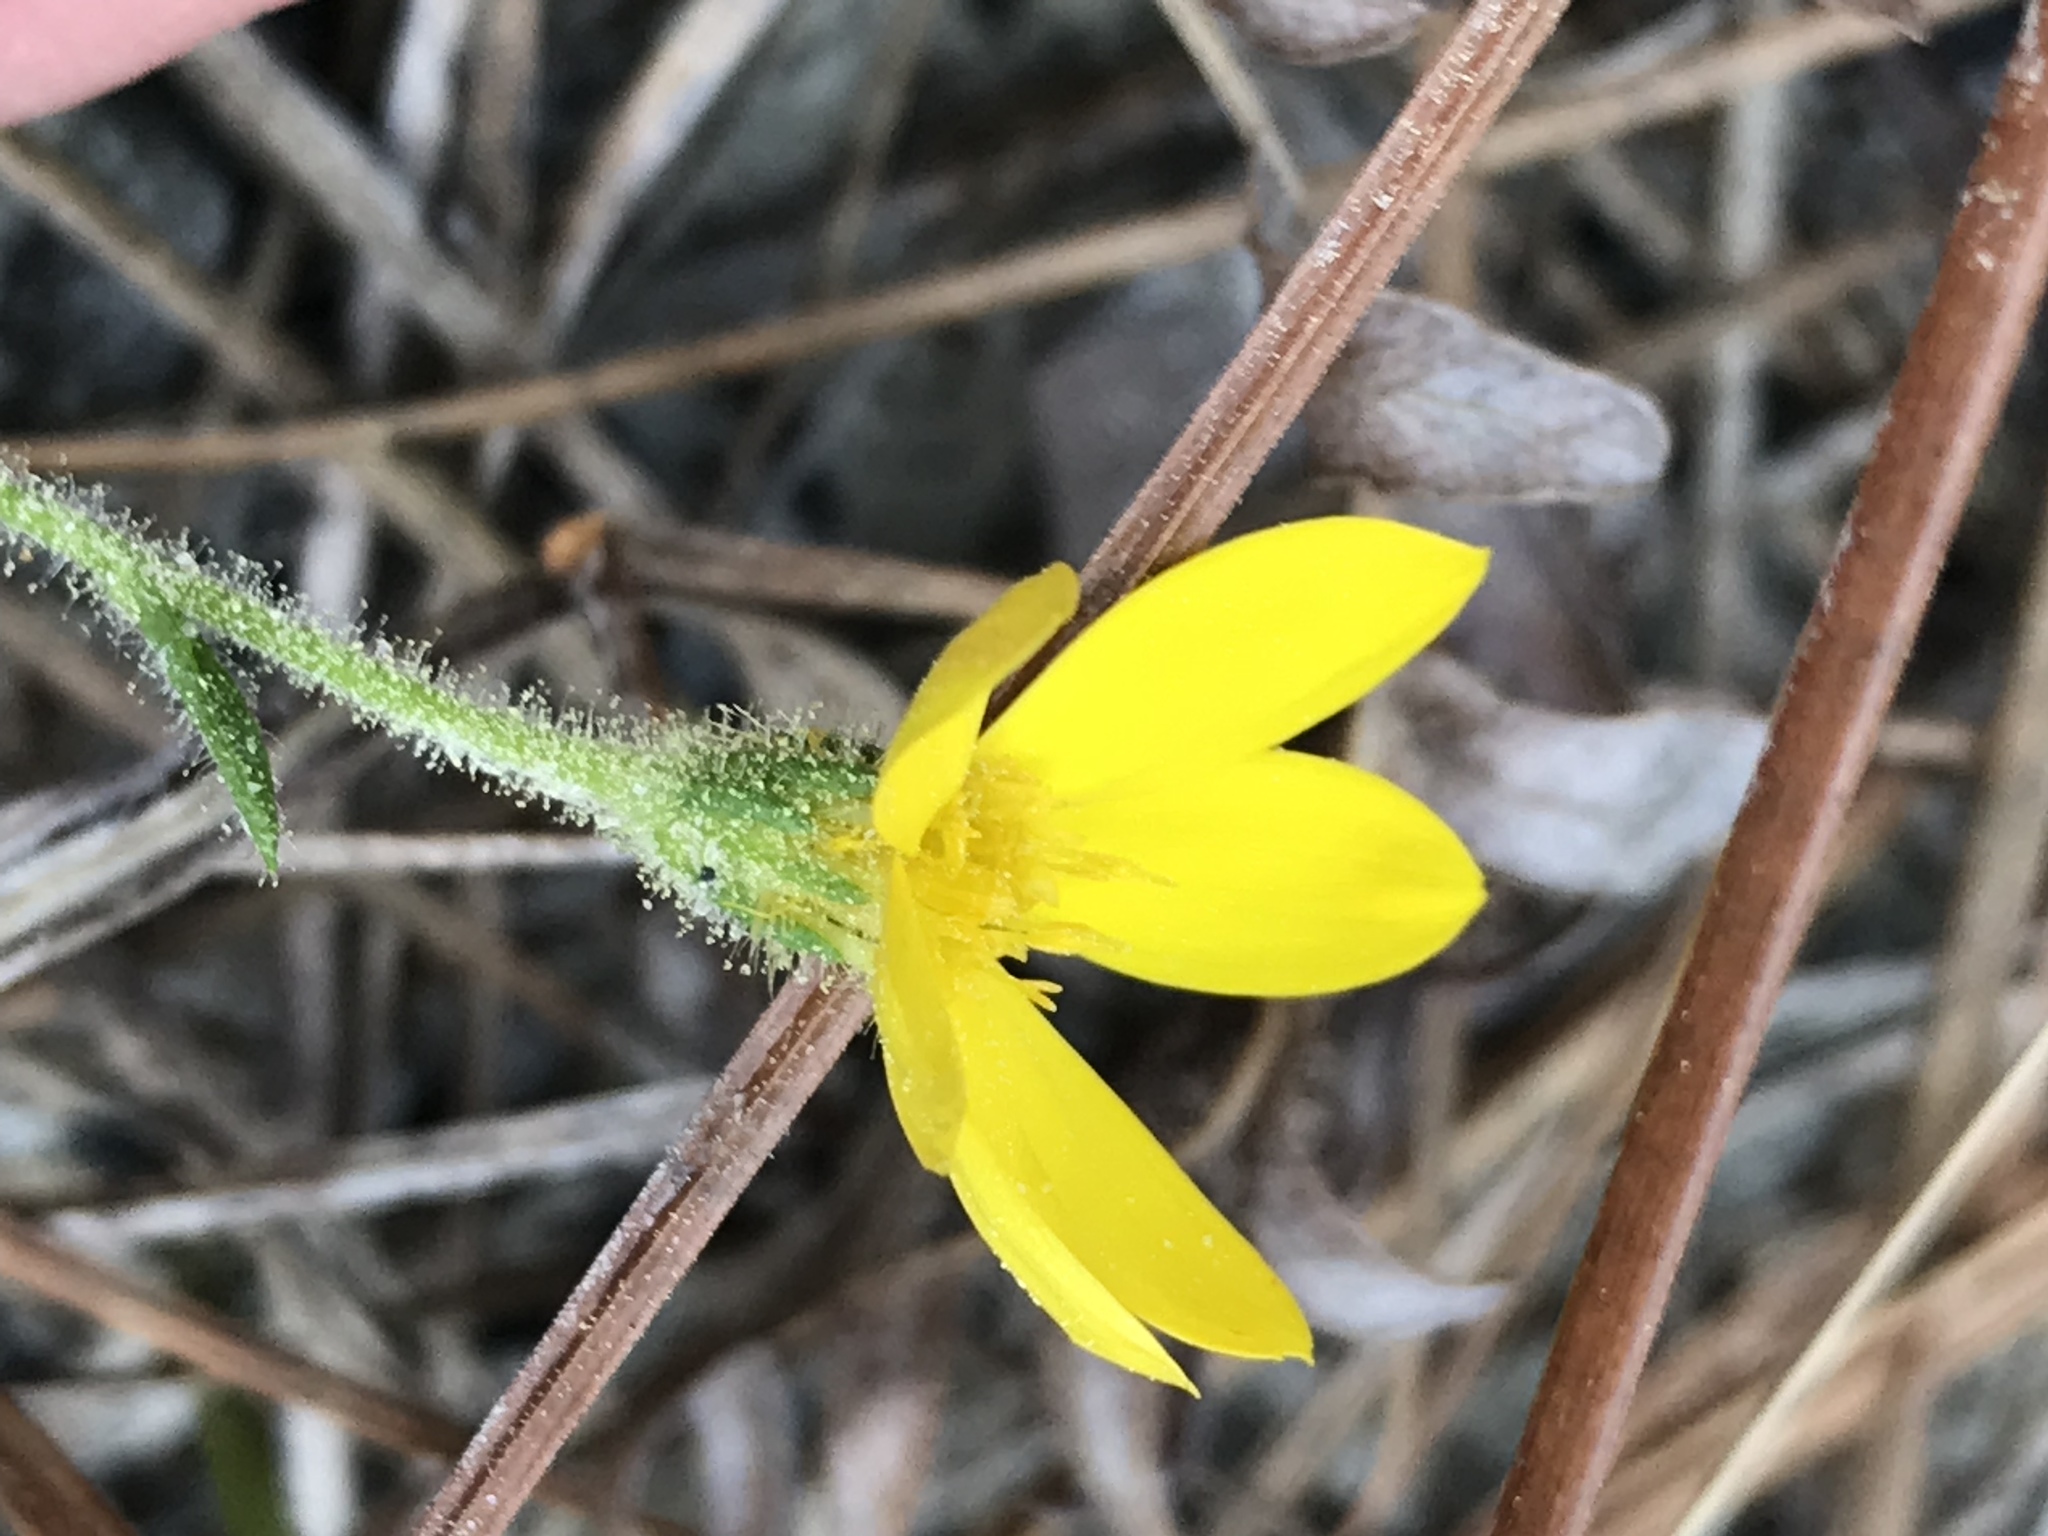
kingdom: Plantae
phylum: Tracheophyta
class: Magnoliopsida
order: Asterales
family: Asteraceae
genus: Chrysopsis
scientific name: Chrysopsis mariana
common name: Maryland golden-aster
